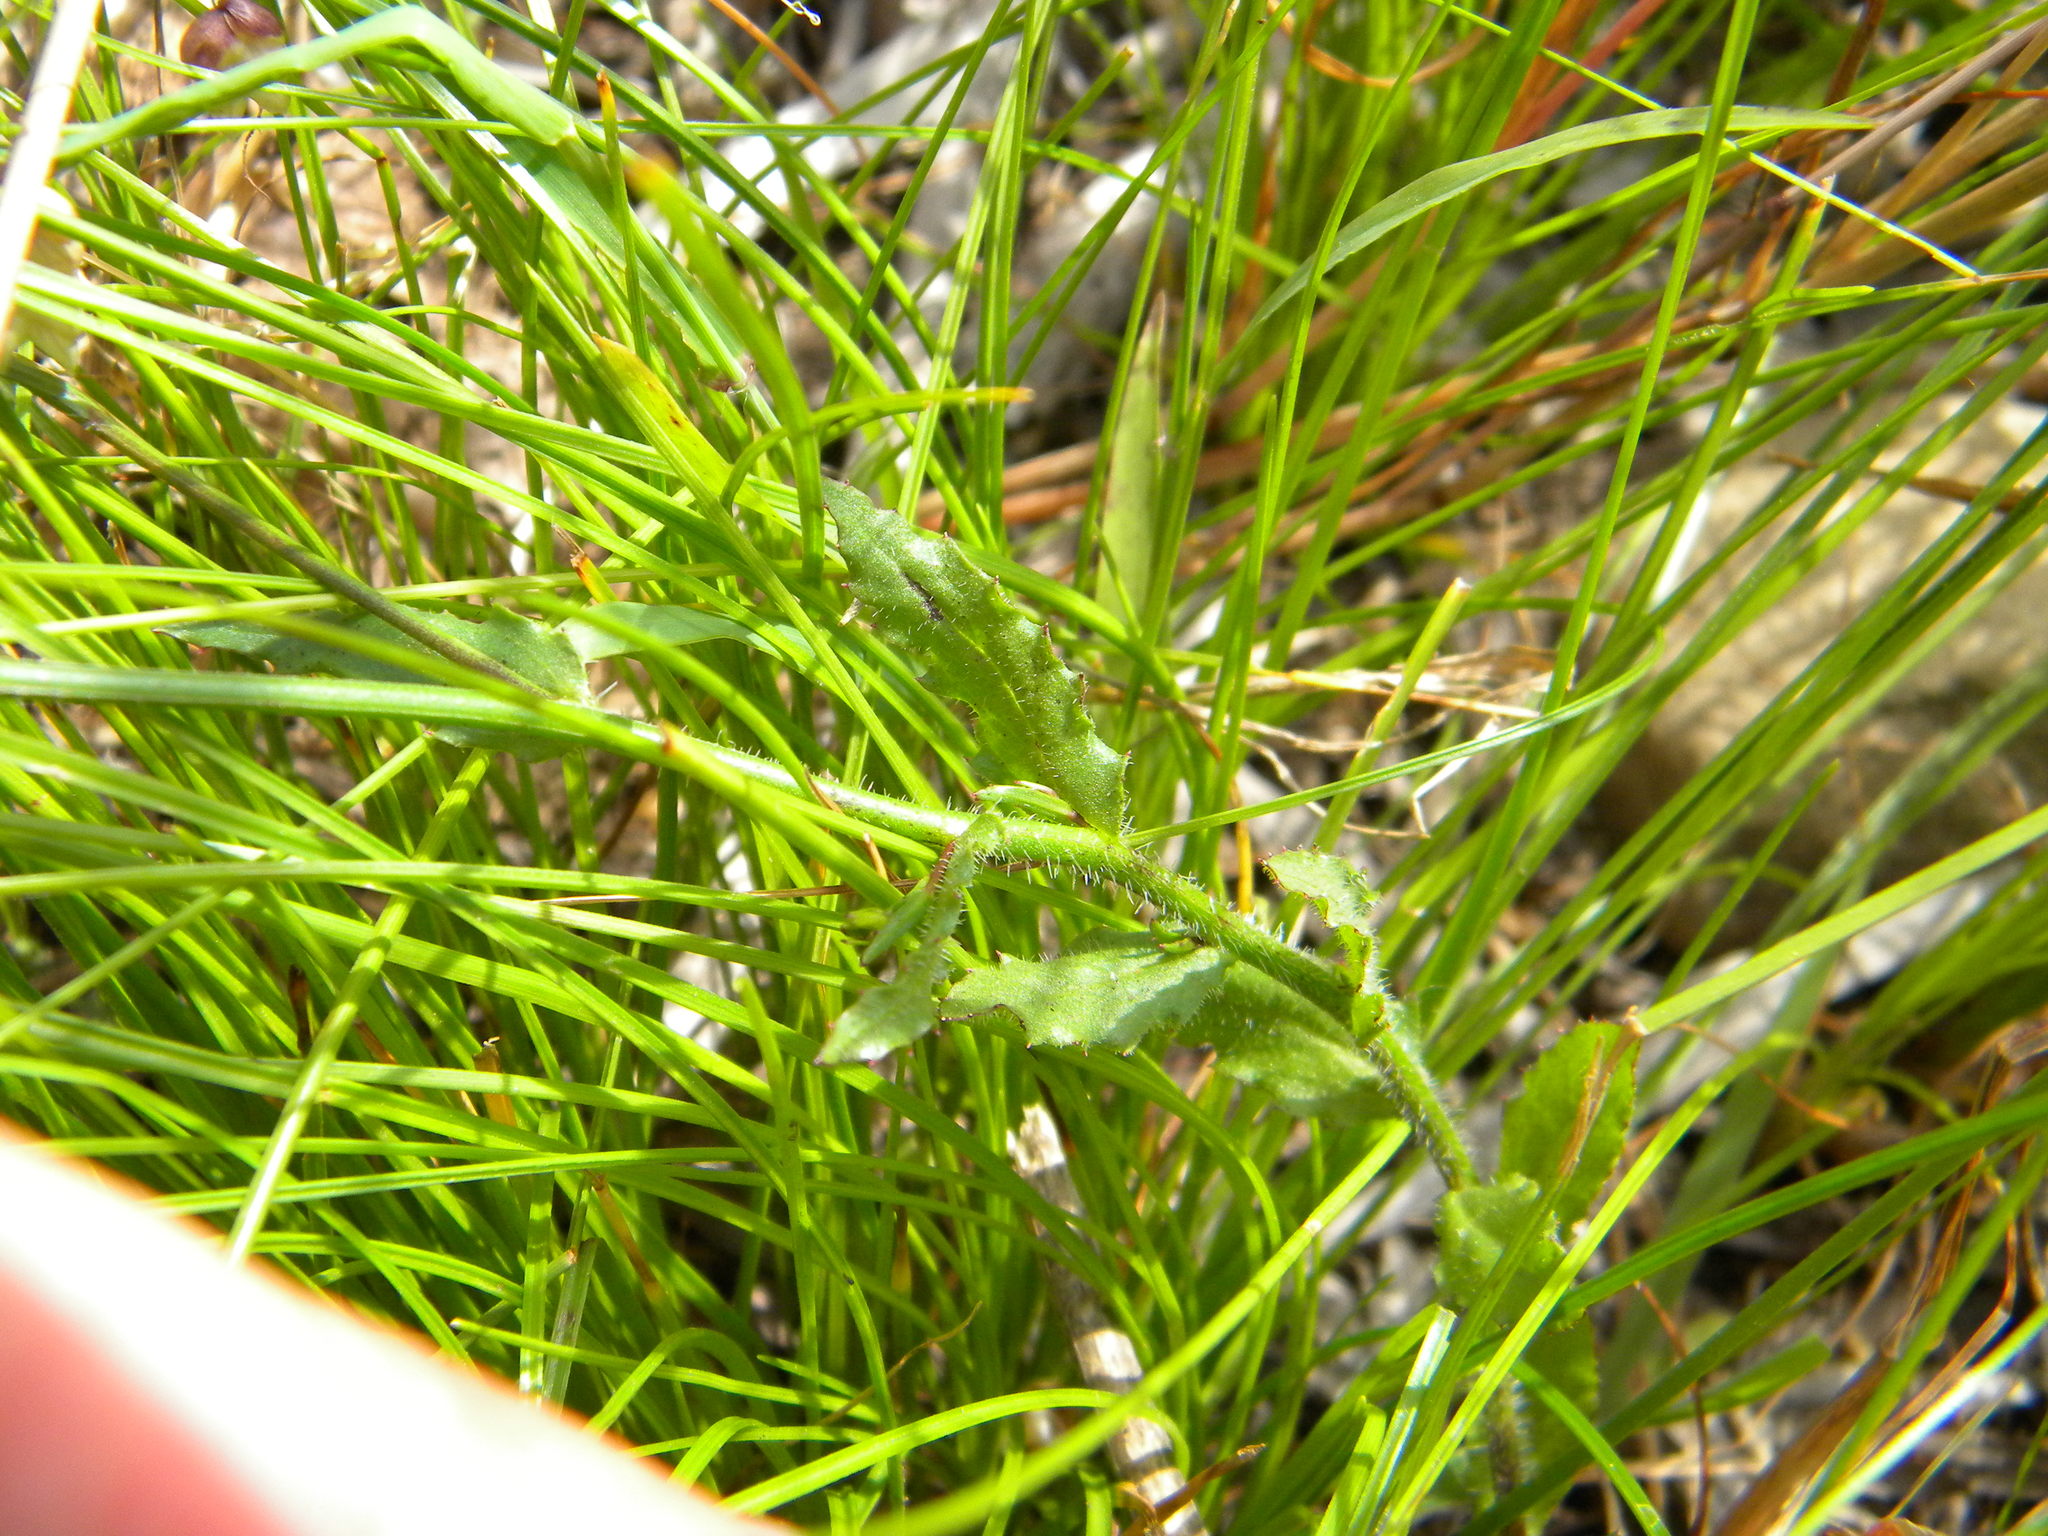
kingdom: Plantae
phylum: Tracheophyta
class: Magnoliopsida
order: Asterales
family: Campanulaceae
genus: Wahlenbergia
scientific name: Wahlenbergia obovata
